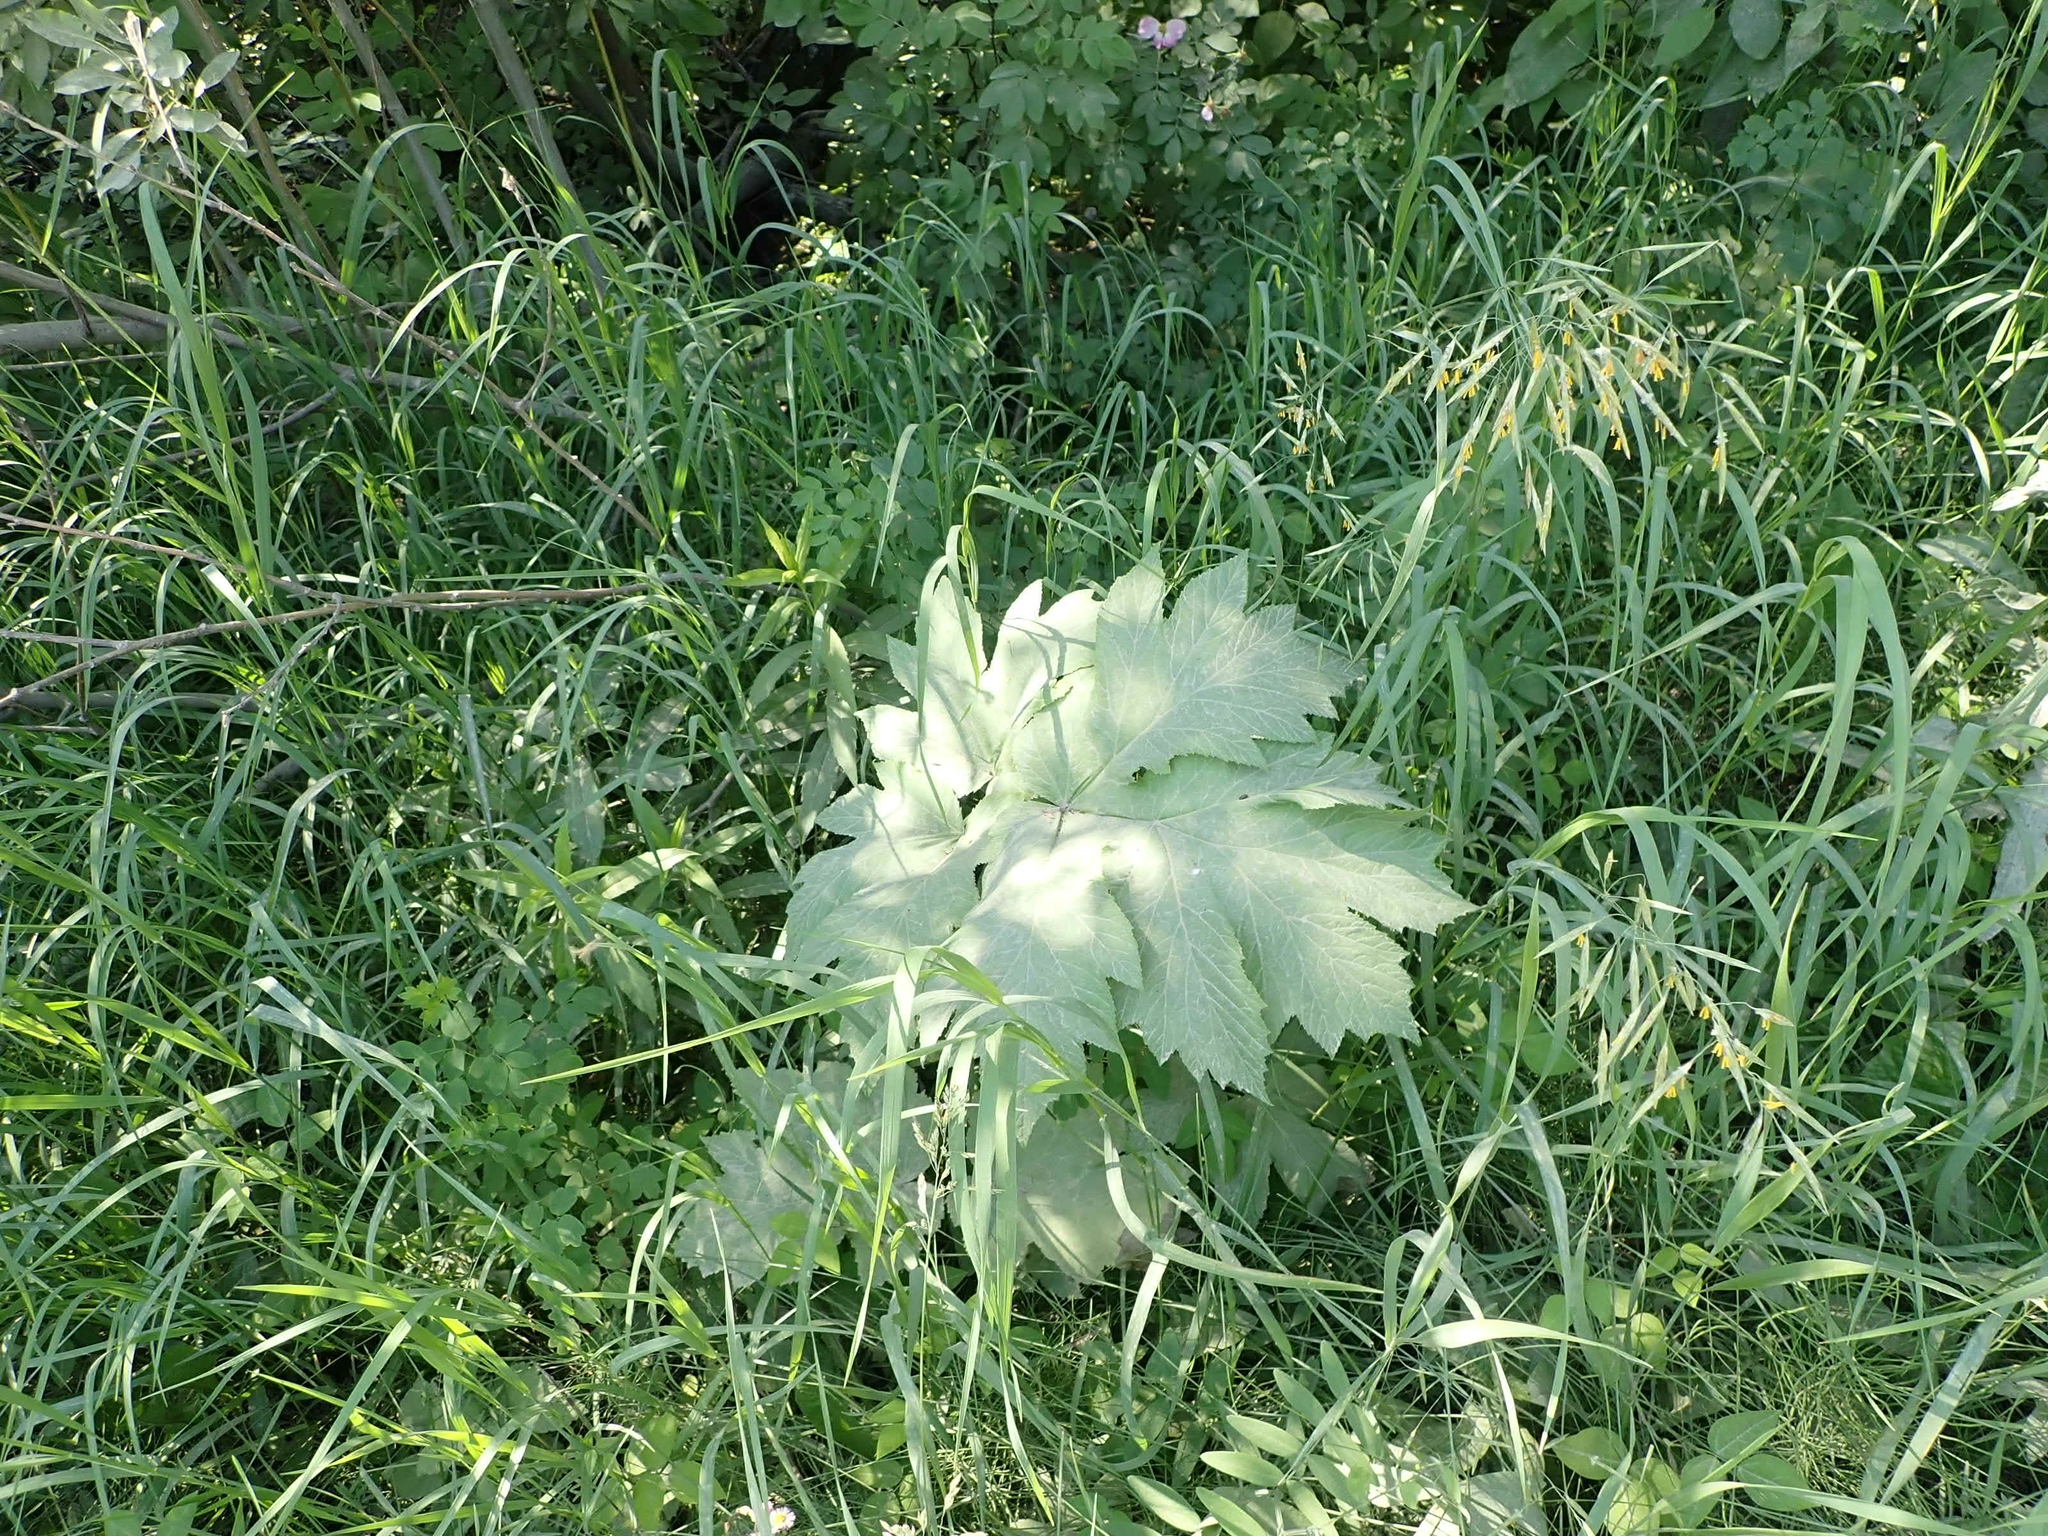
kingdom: Plantae
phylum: Tracheophyta
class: Magnoliopsida
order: Apiales
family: Apiaceae
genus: Heracleum
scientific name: Heracleum maximum
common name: American cow parsnip
